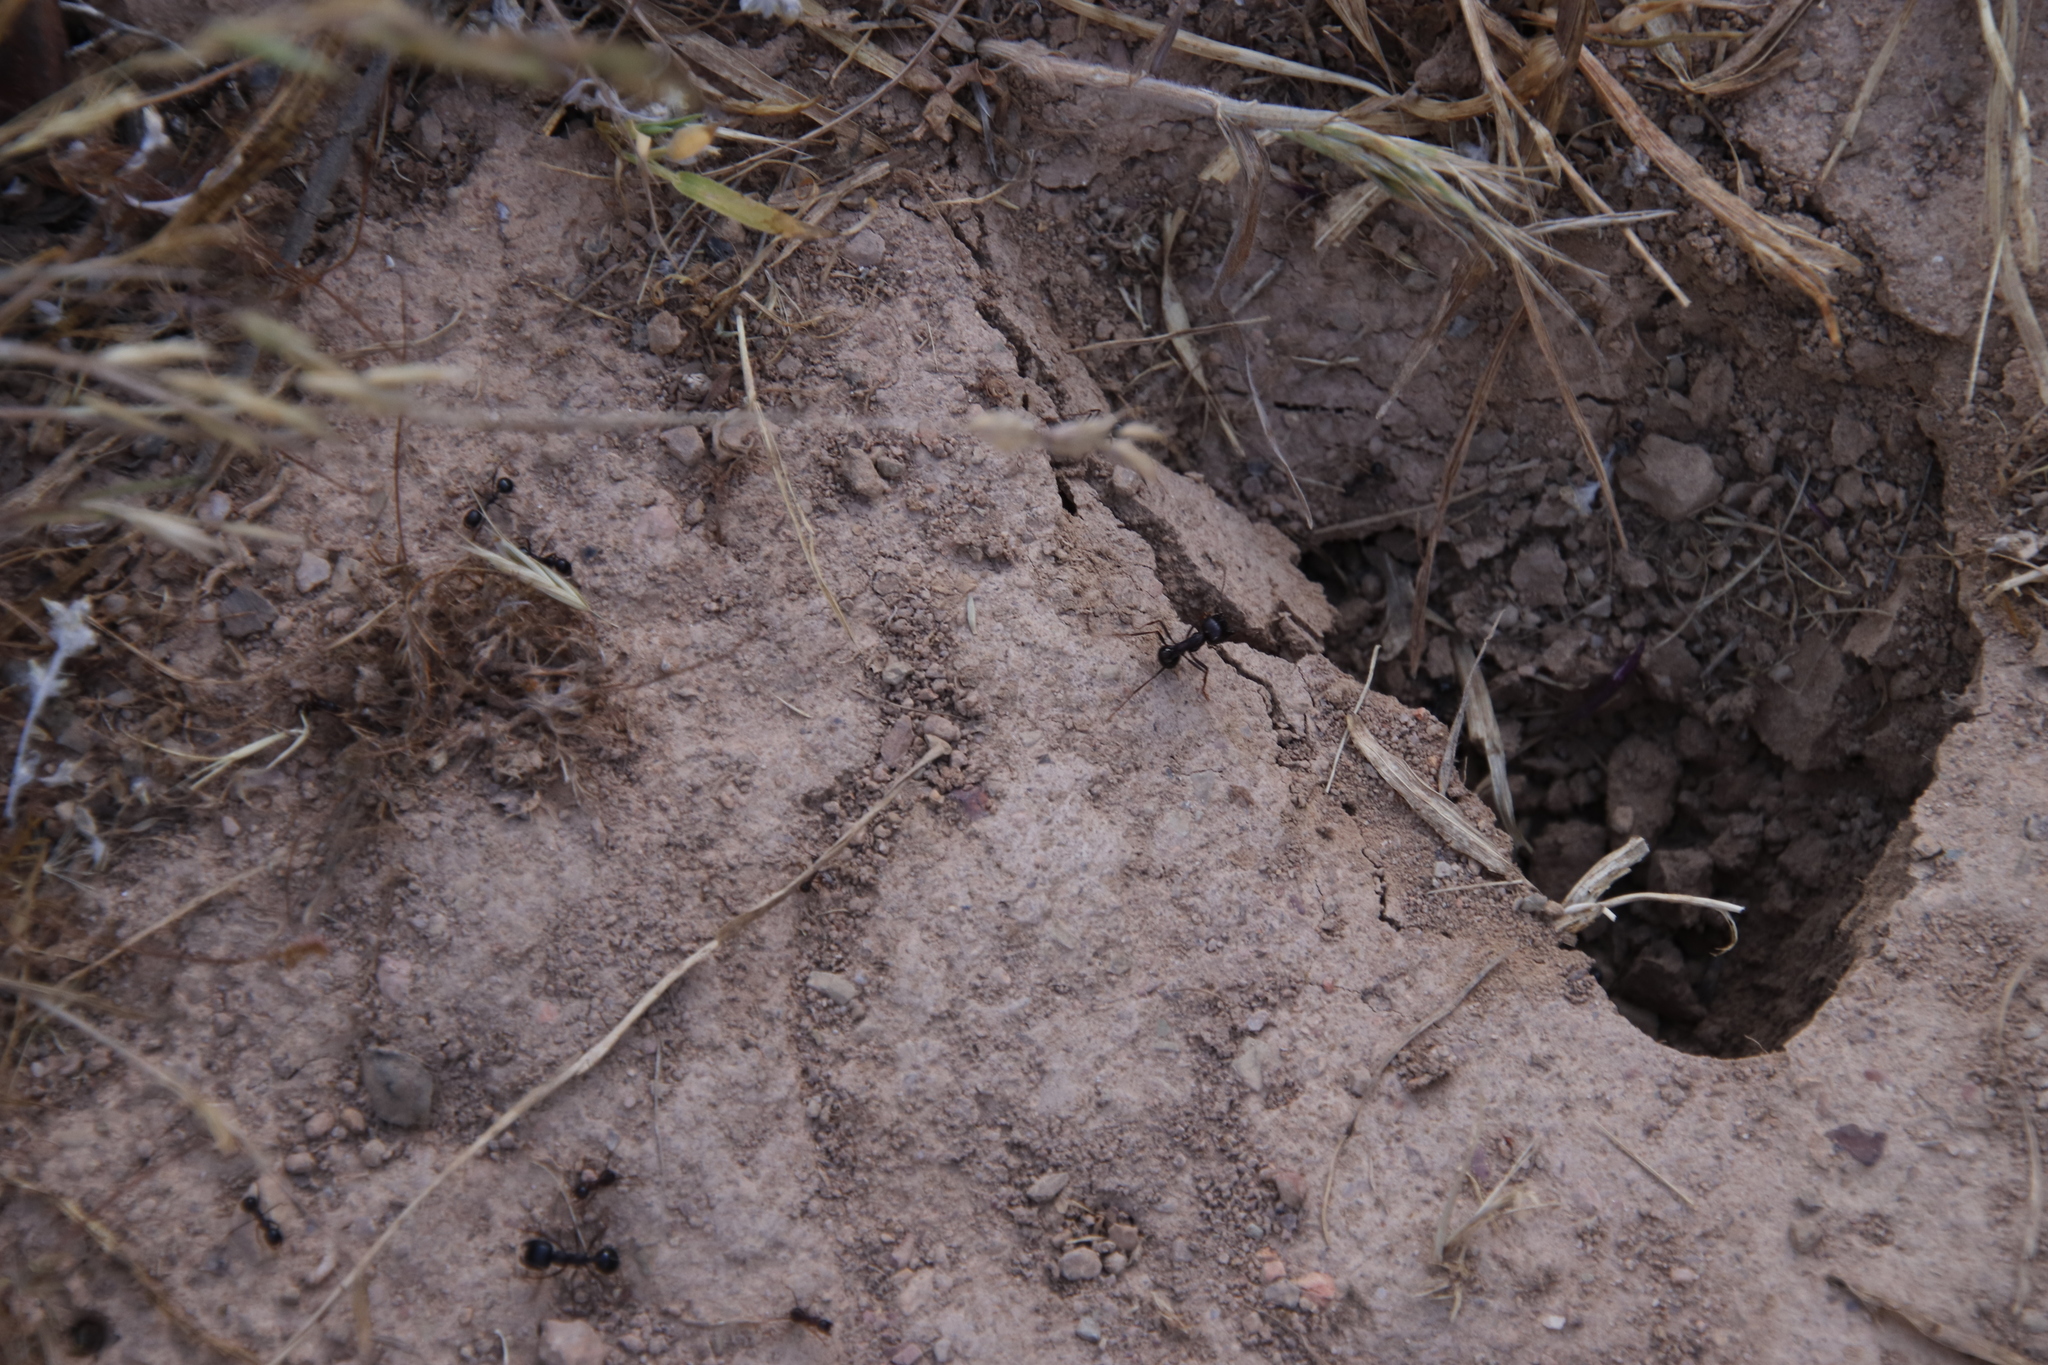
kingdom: Animalia
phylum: Arthropoda
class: Insecta
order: Hymenoptera
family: Formicidae
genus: Messor
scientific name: Messor striatifrons
